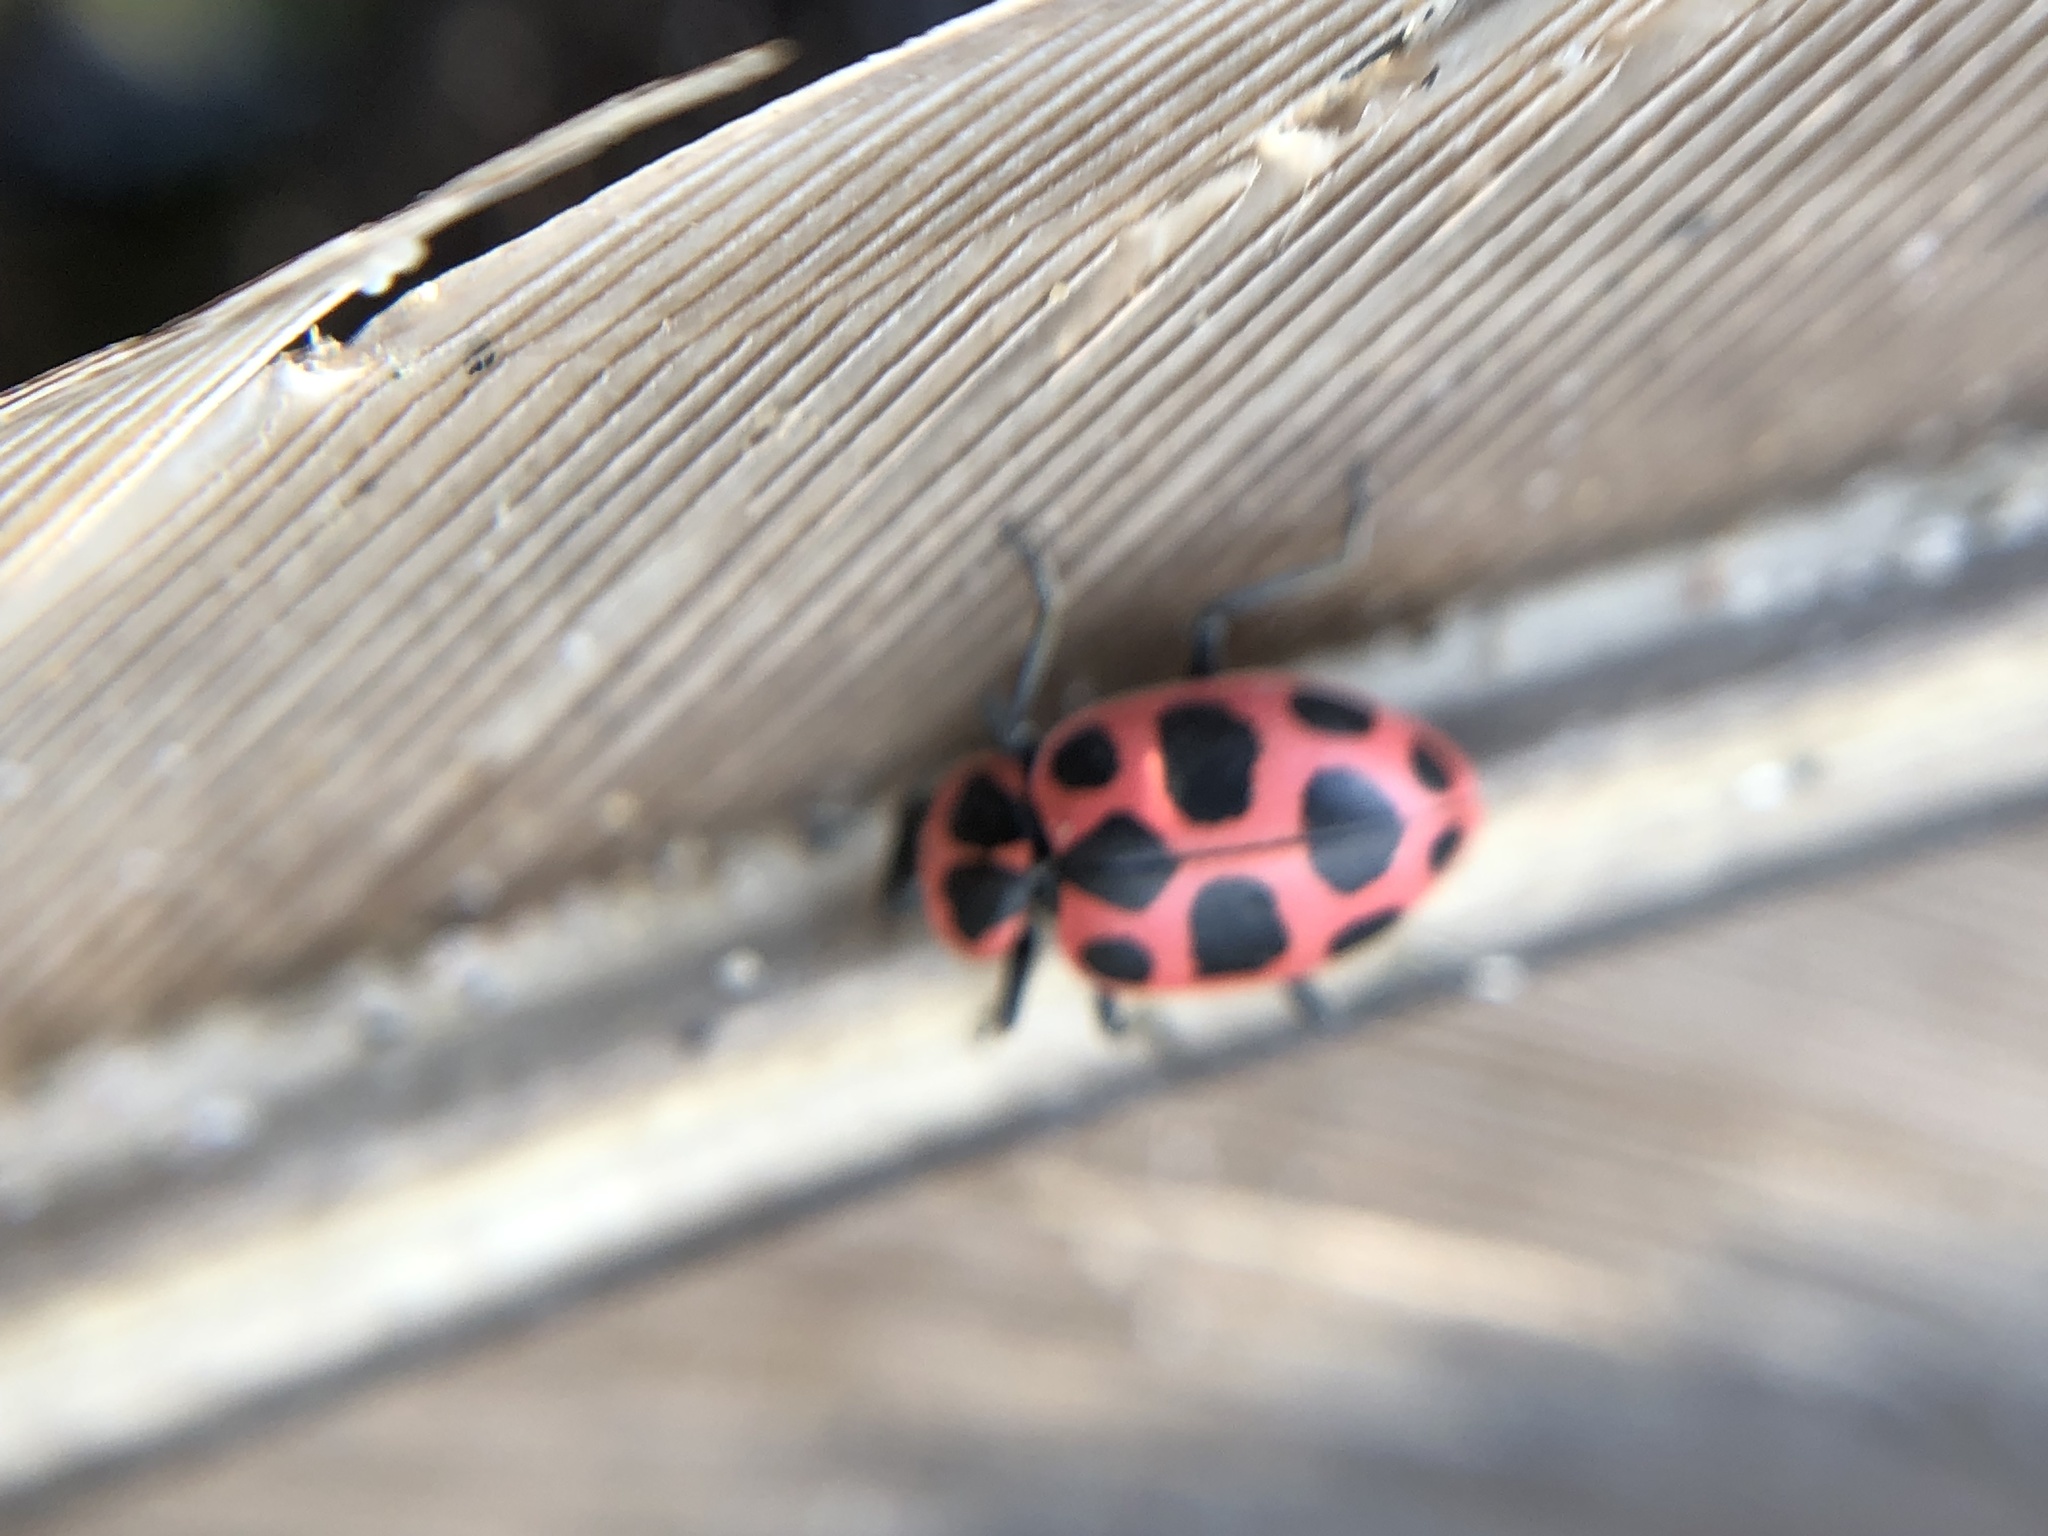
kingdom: Animalia
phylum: Arthropoda
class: Insecta
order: Coleoptera
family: Coccinellidae
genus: Coleomegilla
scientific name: Coleomegilla maculata
